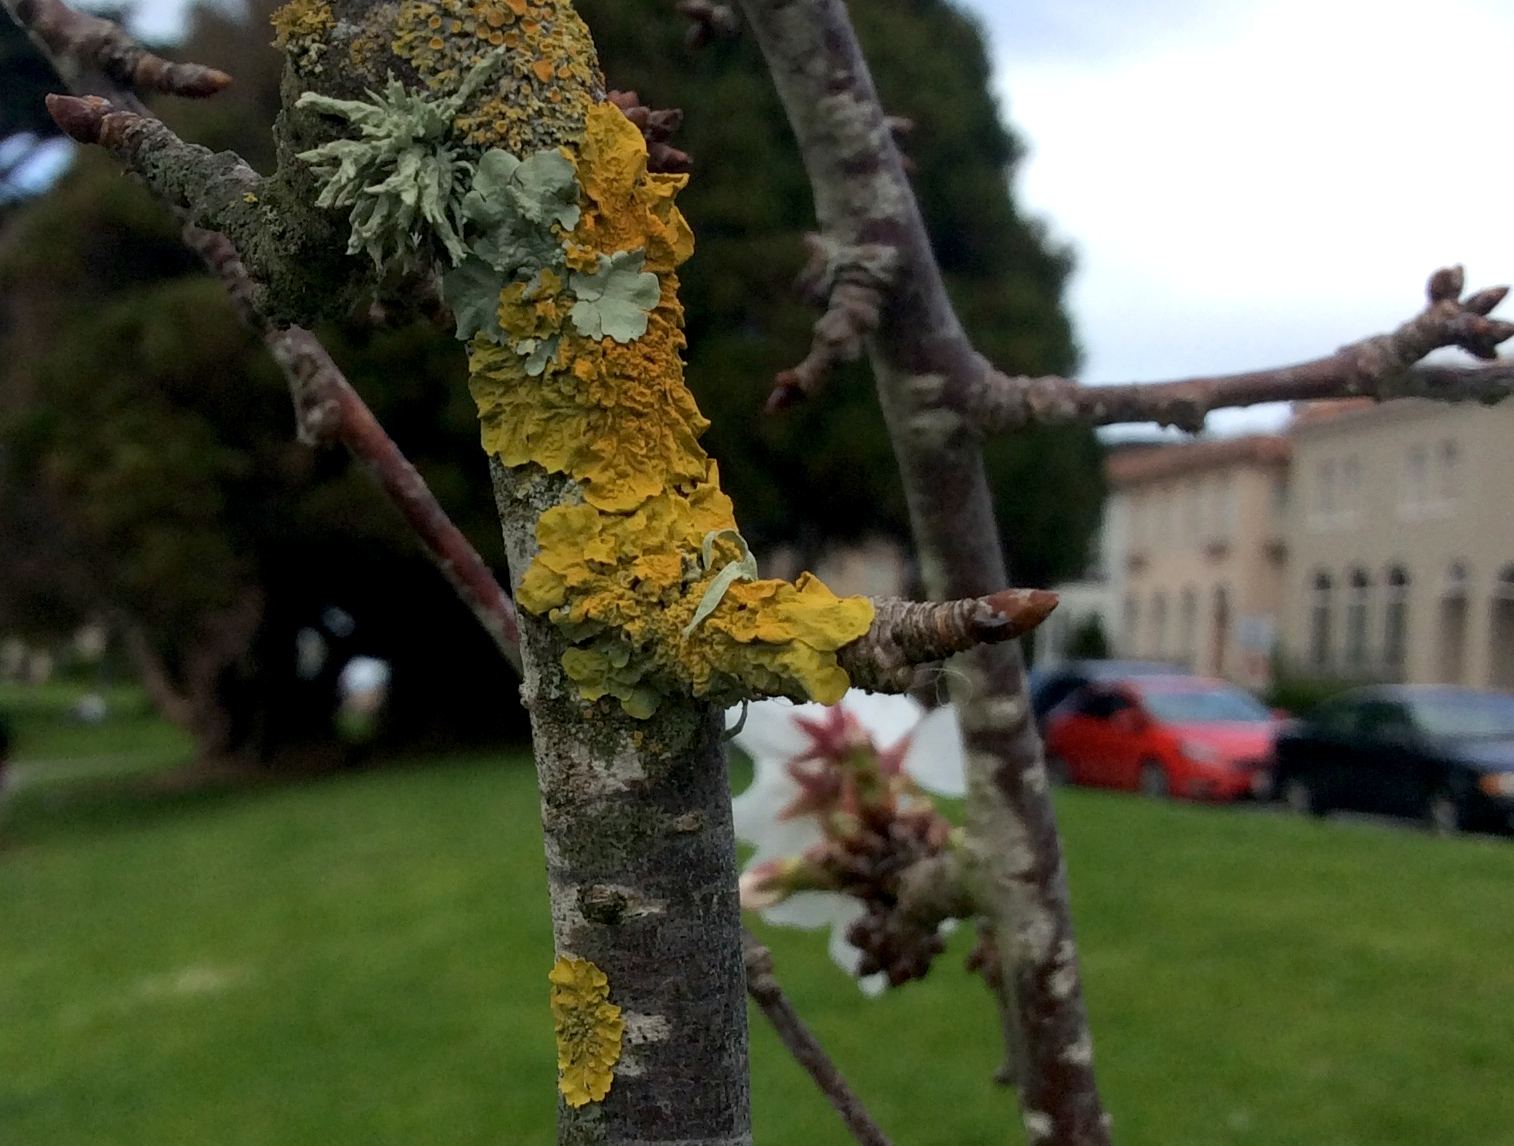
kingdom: Fungi
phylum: Ascomycota
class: Lecanoromycetes
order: Teloschistales
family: Teloschistaceae
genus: Xanthoria
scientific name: Xanthoria parietina
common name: Common orange lichen
